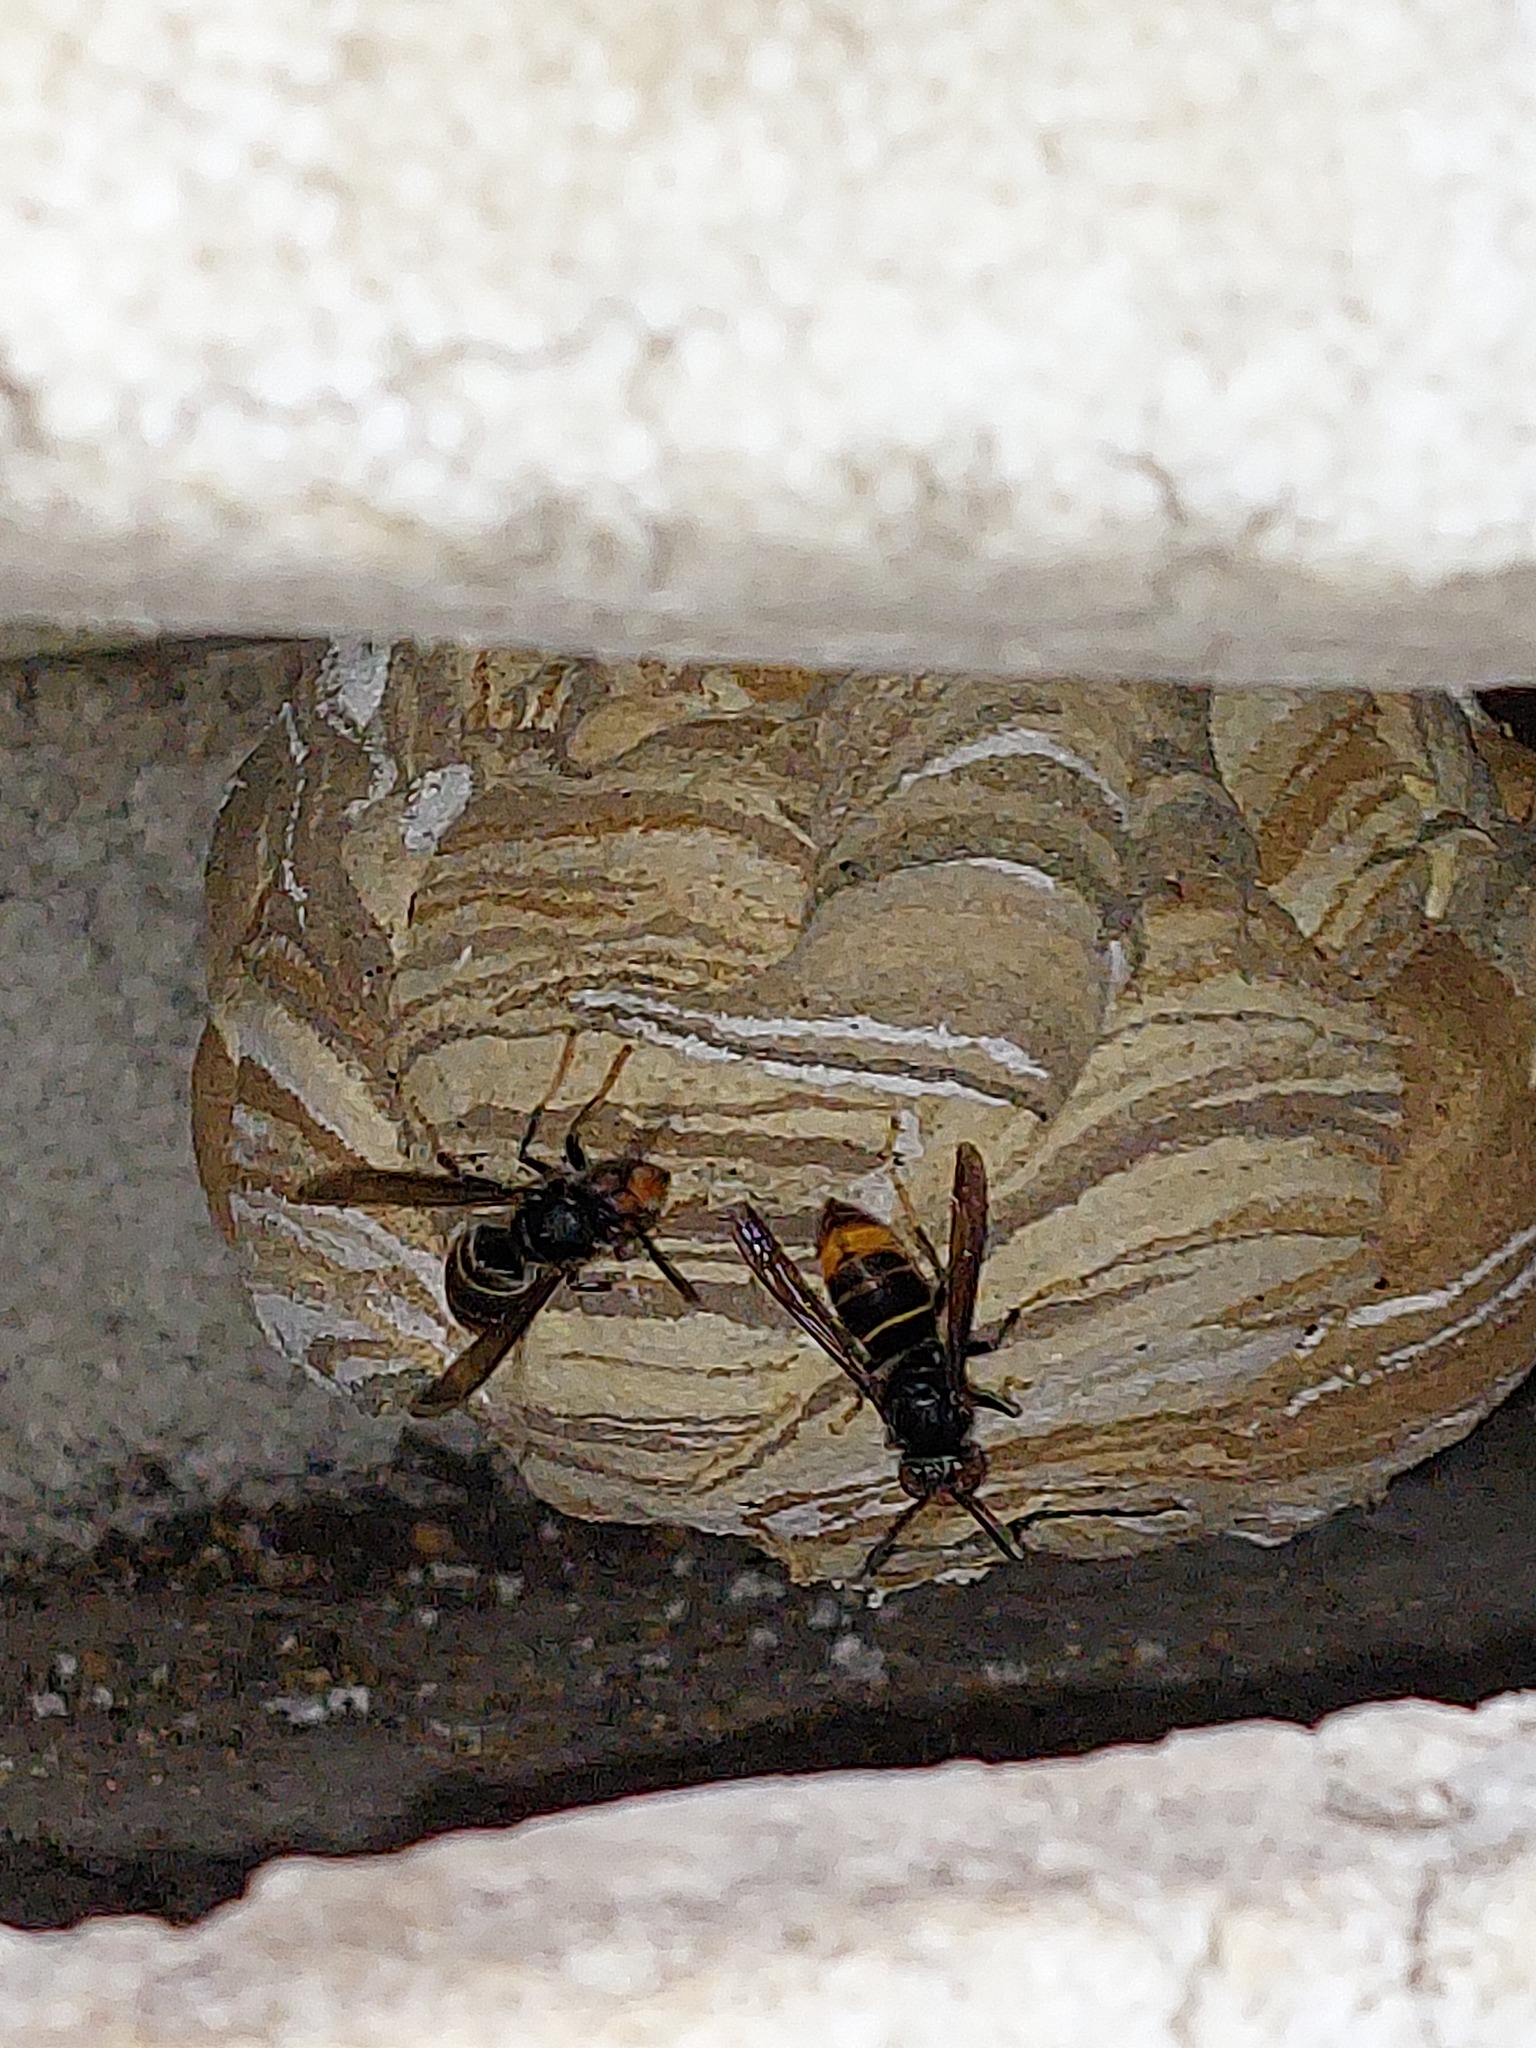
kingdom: Animalia
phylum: Arthropoda
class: Insecta
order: Hymenoptera
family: Vespidae
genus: Vespa
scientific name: Vespa velutina
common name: Asian hornet
